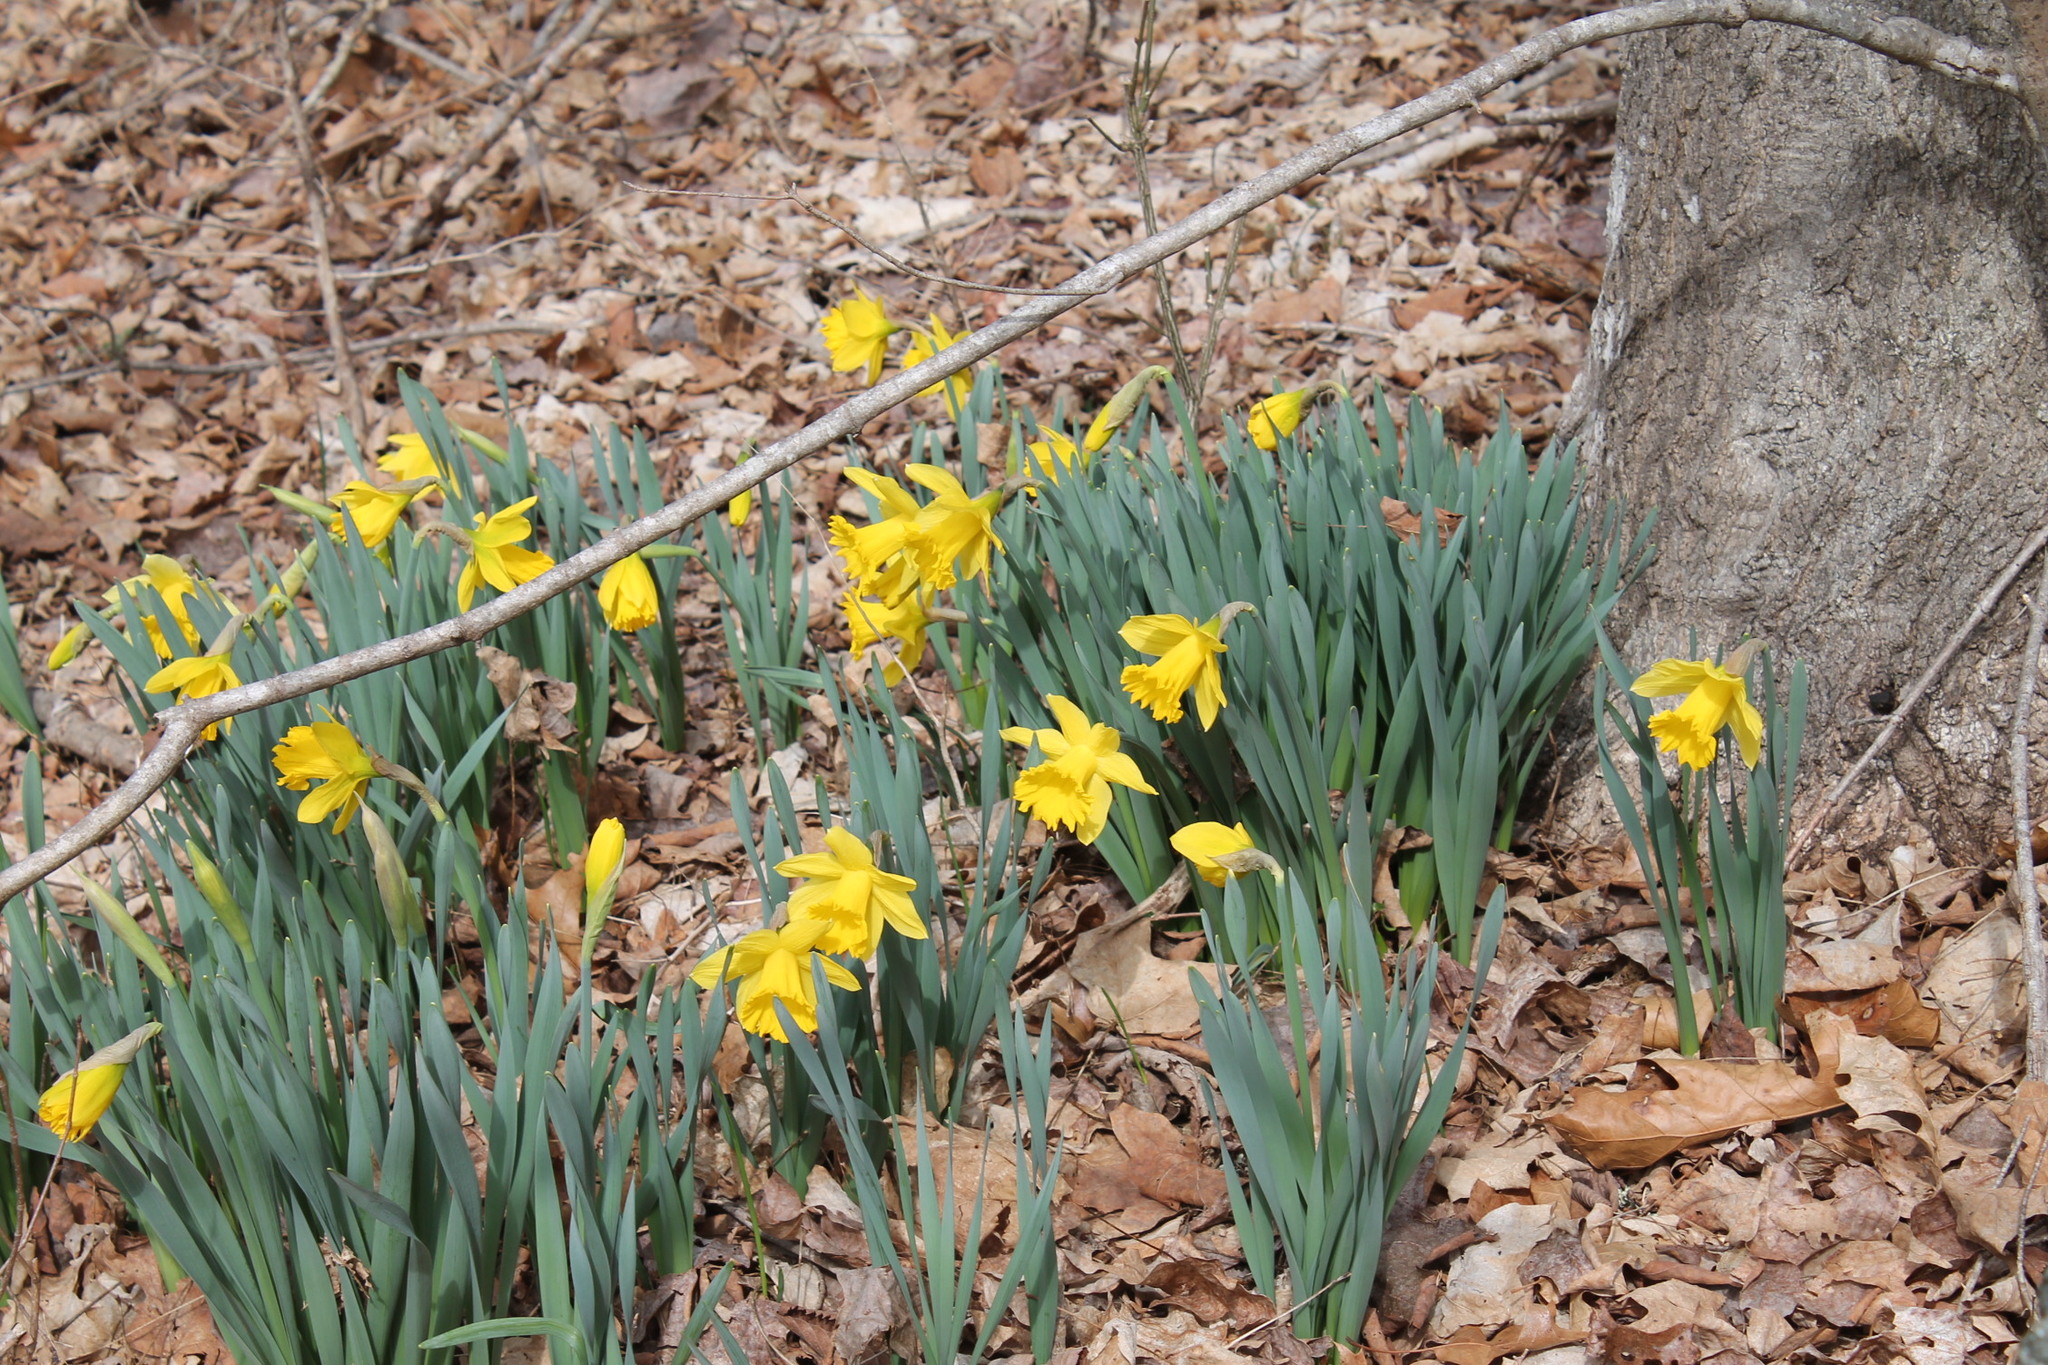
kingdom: Plantae
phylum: Tracheophyta
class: Liliopsida
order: Asparagales
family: Amaryllidaceae
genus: Narcissus
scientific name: Narcissus pseudonarcissus
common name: Daffodil
